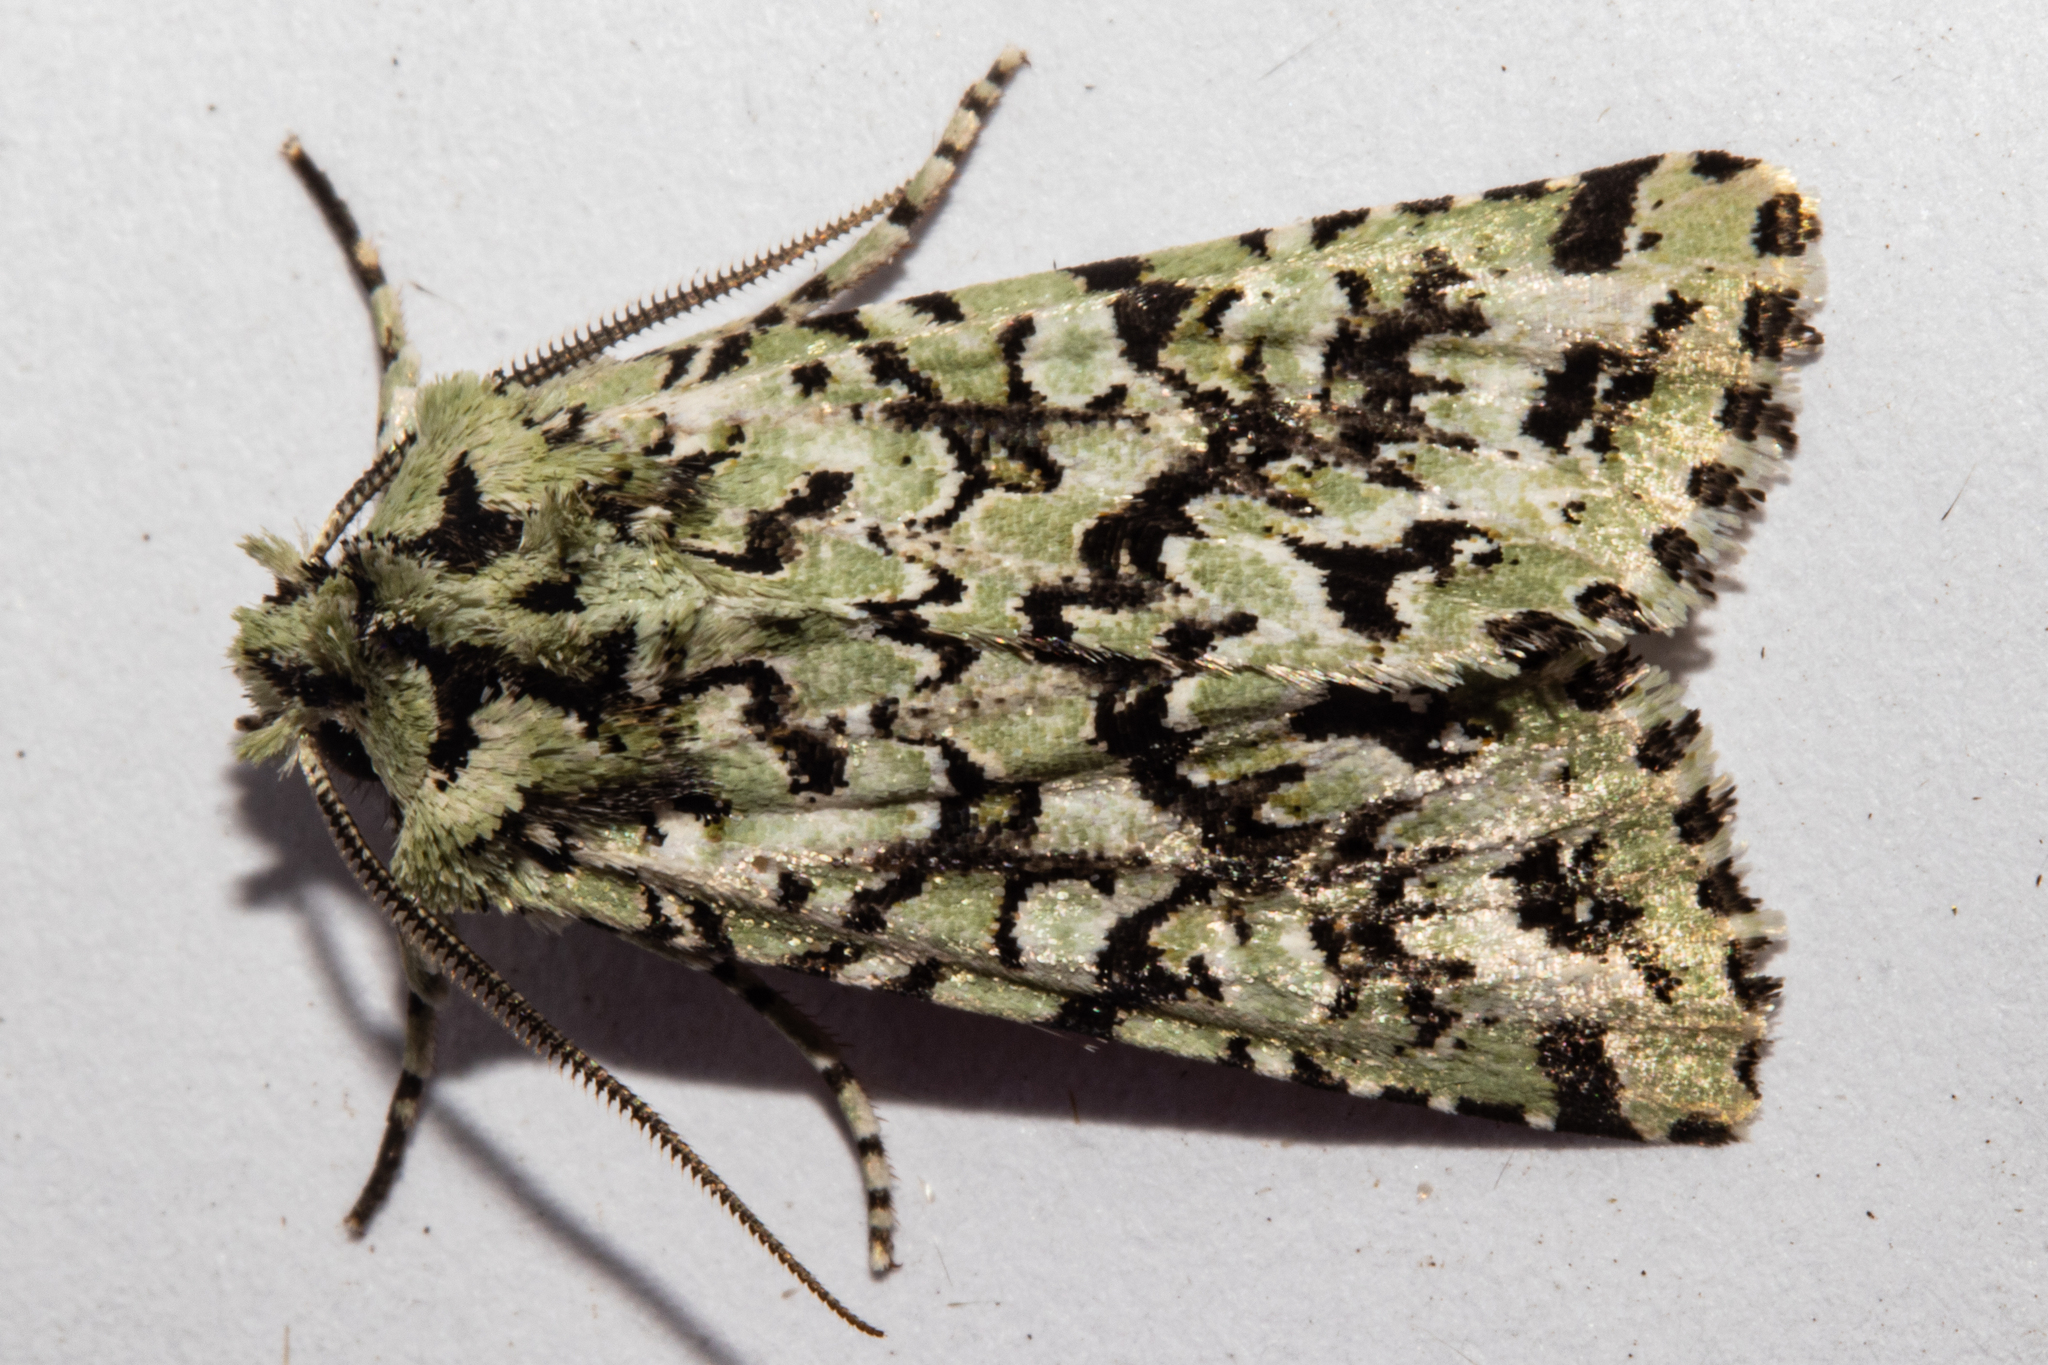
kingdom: Animalia
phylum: Arthropoda
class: Insecta
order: Lepidoptera
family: Noctuidae
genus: Meterana
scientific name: Meterana
